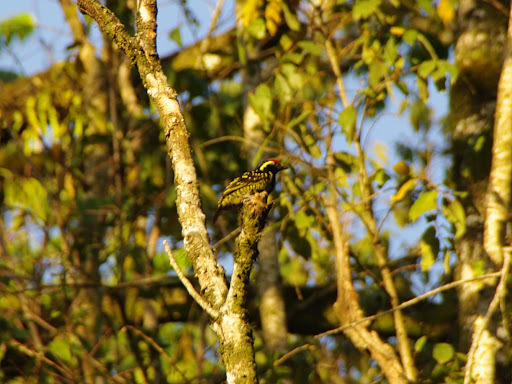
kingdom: Animalia
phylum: Chordata
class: Aves
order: Piciformes
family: Lybiidae
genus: Buccanodon
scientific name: Buccanodon duchaillui
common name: Yellow-spotted barbet
